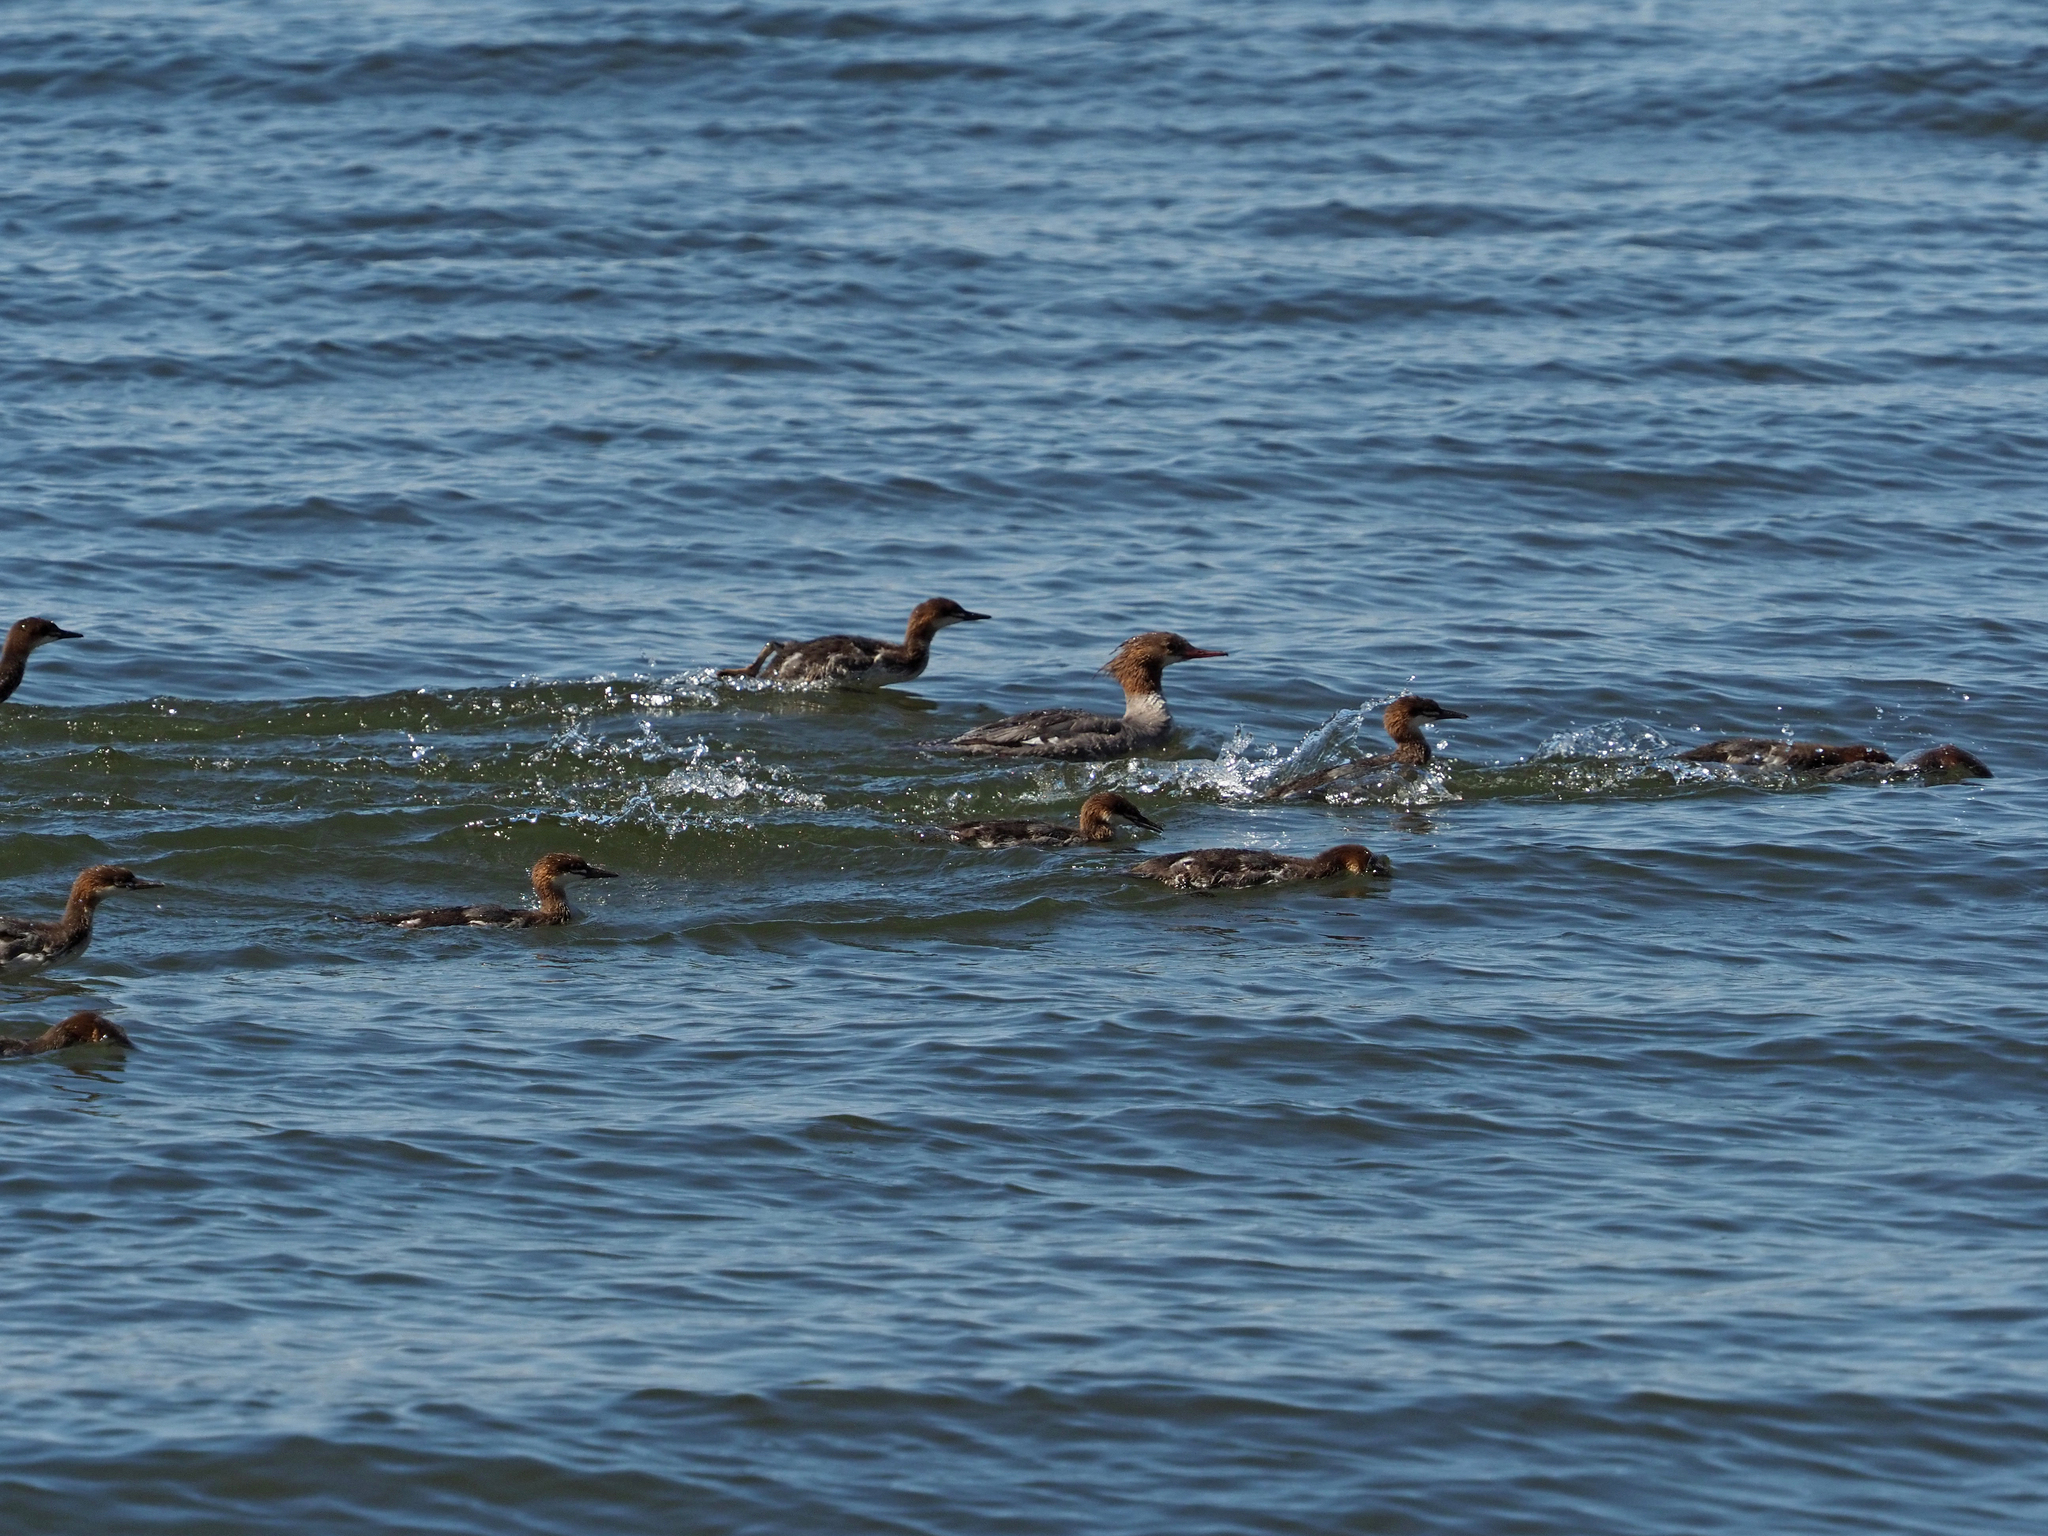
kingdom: Animalia
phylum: Chordata
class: Aves
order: Anseriformes
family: Anatidae
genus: Mergus
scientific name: Mergus merganser
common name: Common merganser
